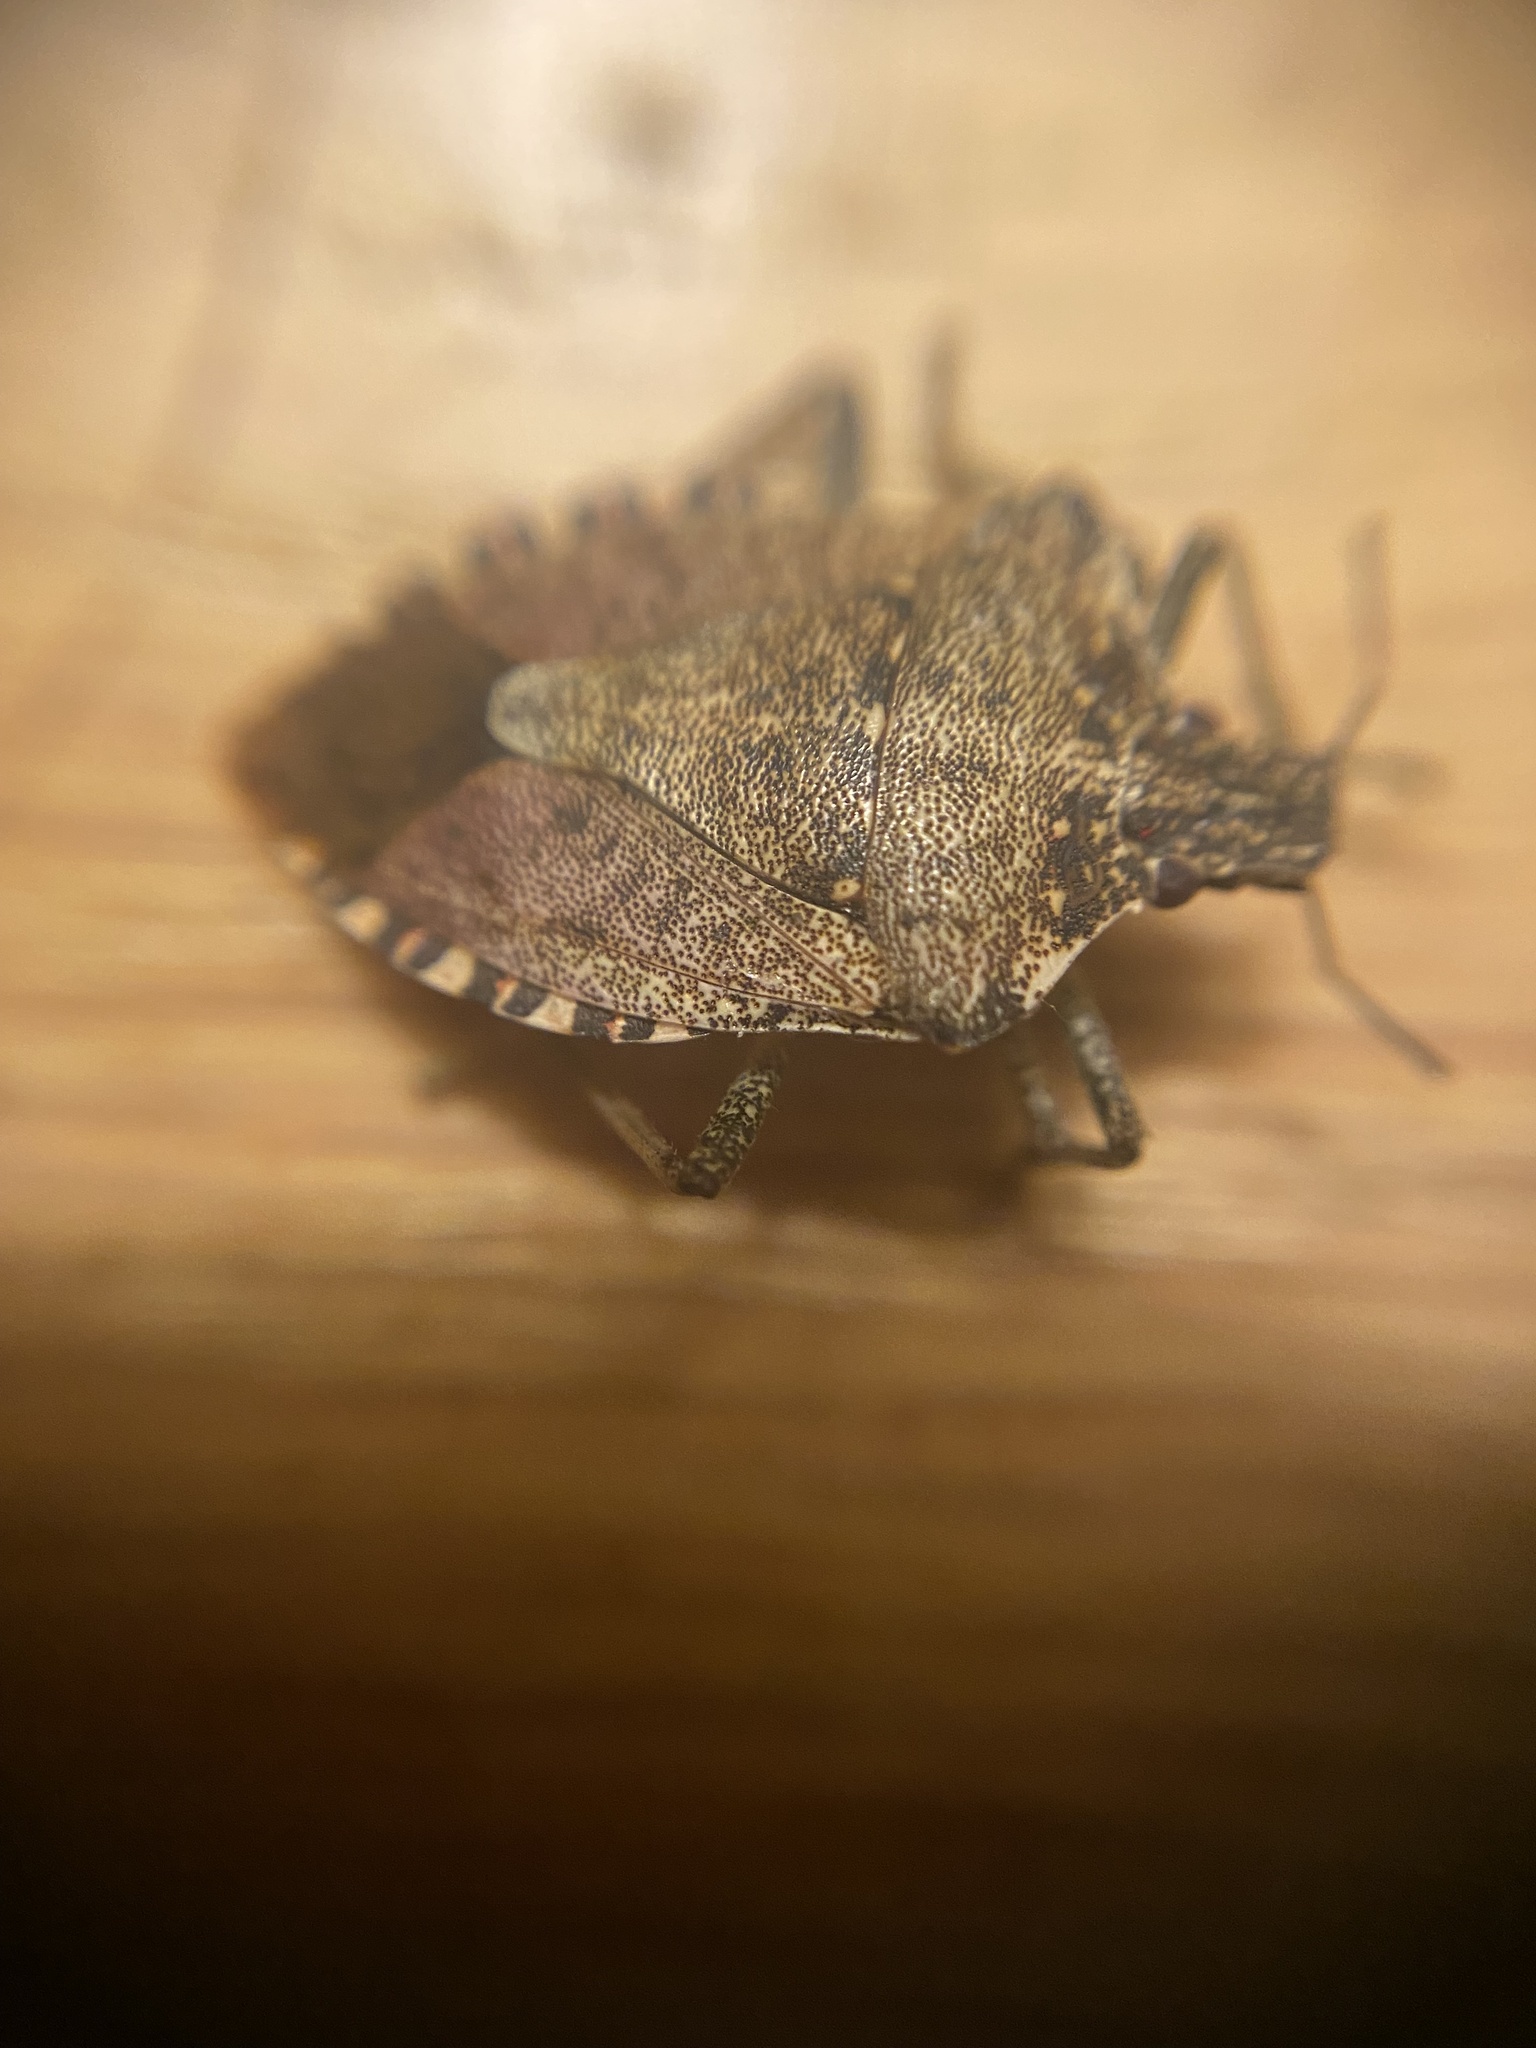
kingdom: Animalia
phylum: Arthropoda
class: Insecta
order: Hemiptera
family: Pentatomidae
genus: Halyomorpha
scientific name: Halyomorpha halys
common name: Brown marmorated stink bug
